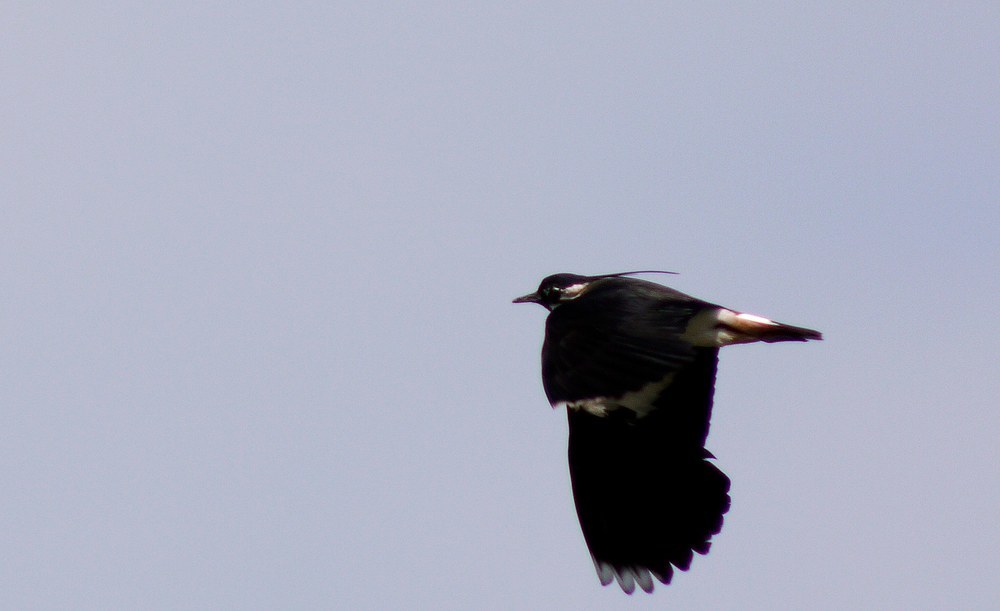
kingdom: Animalia
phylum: Chordata
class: Aves
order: Charadriiformes
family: Charadriidae
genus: Vanellus
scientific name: Vanellus vanellus
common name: Northern lapwing
